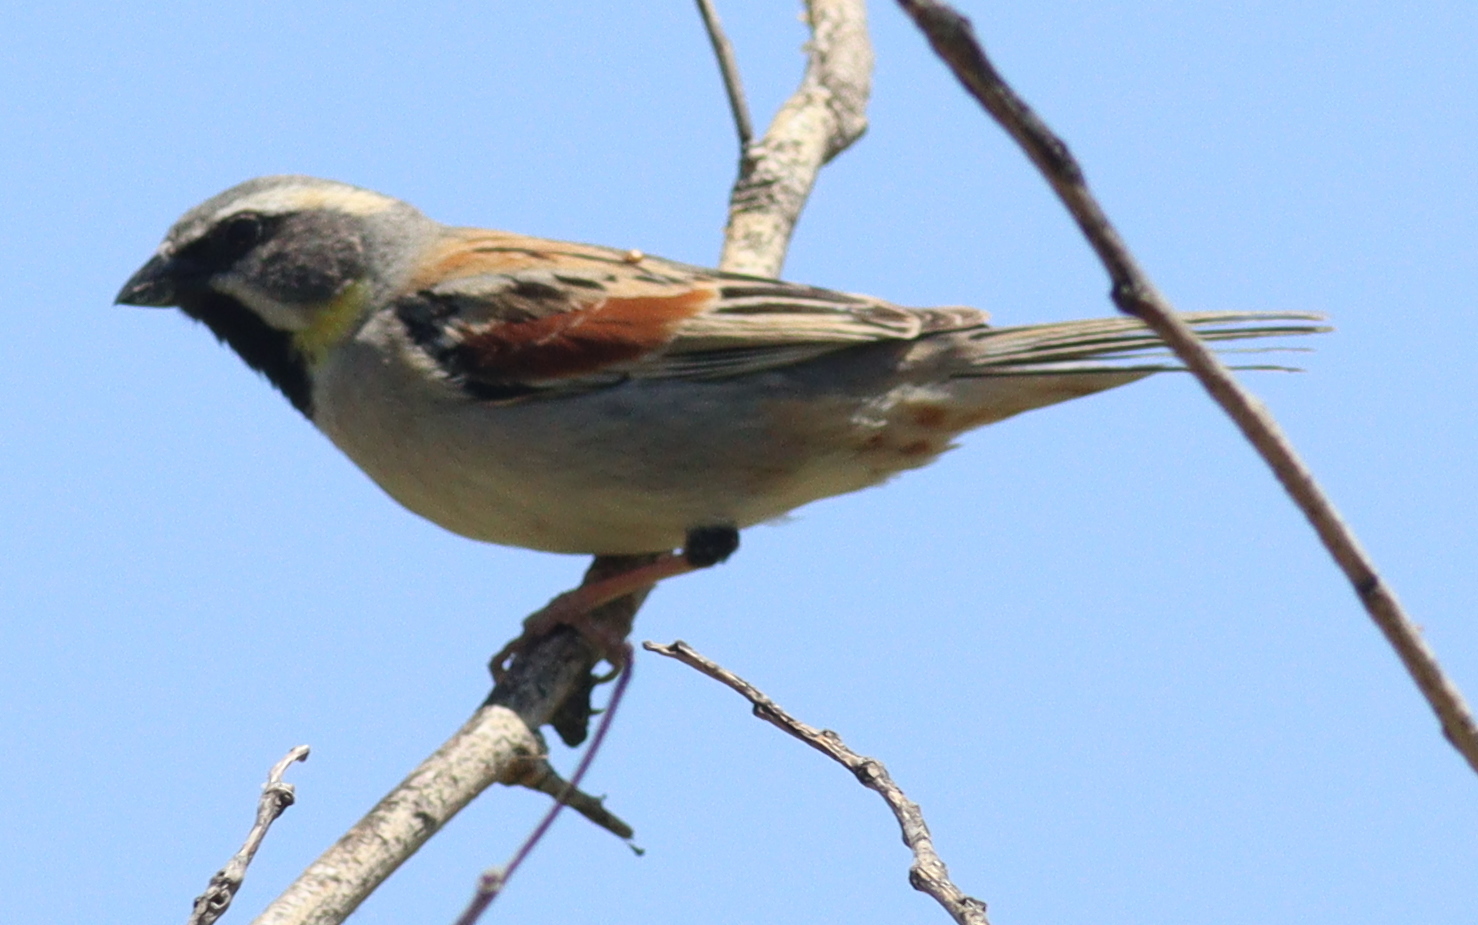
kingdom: Animalia
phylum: Chordata
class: Aves
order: Passeriformes
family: Passeridae
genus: Passer
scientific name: Passer moabiticus
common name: Dead sea sparrow
